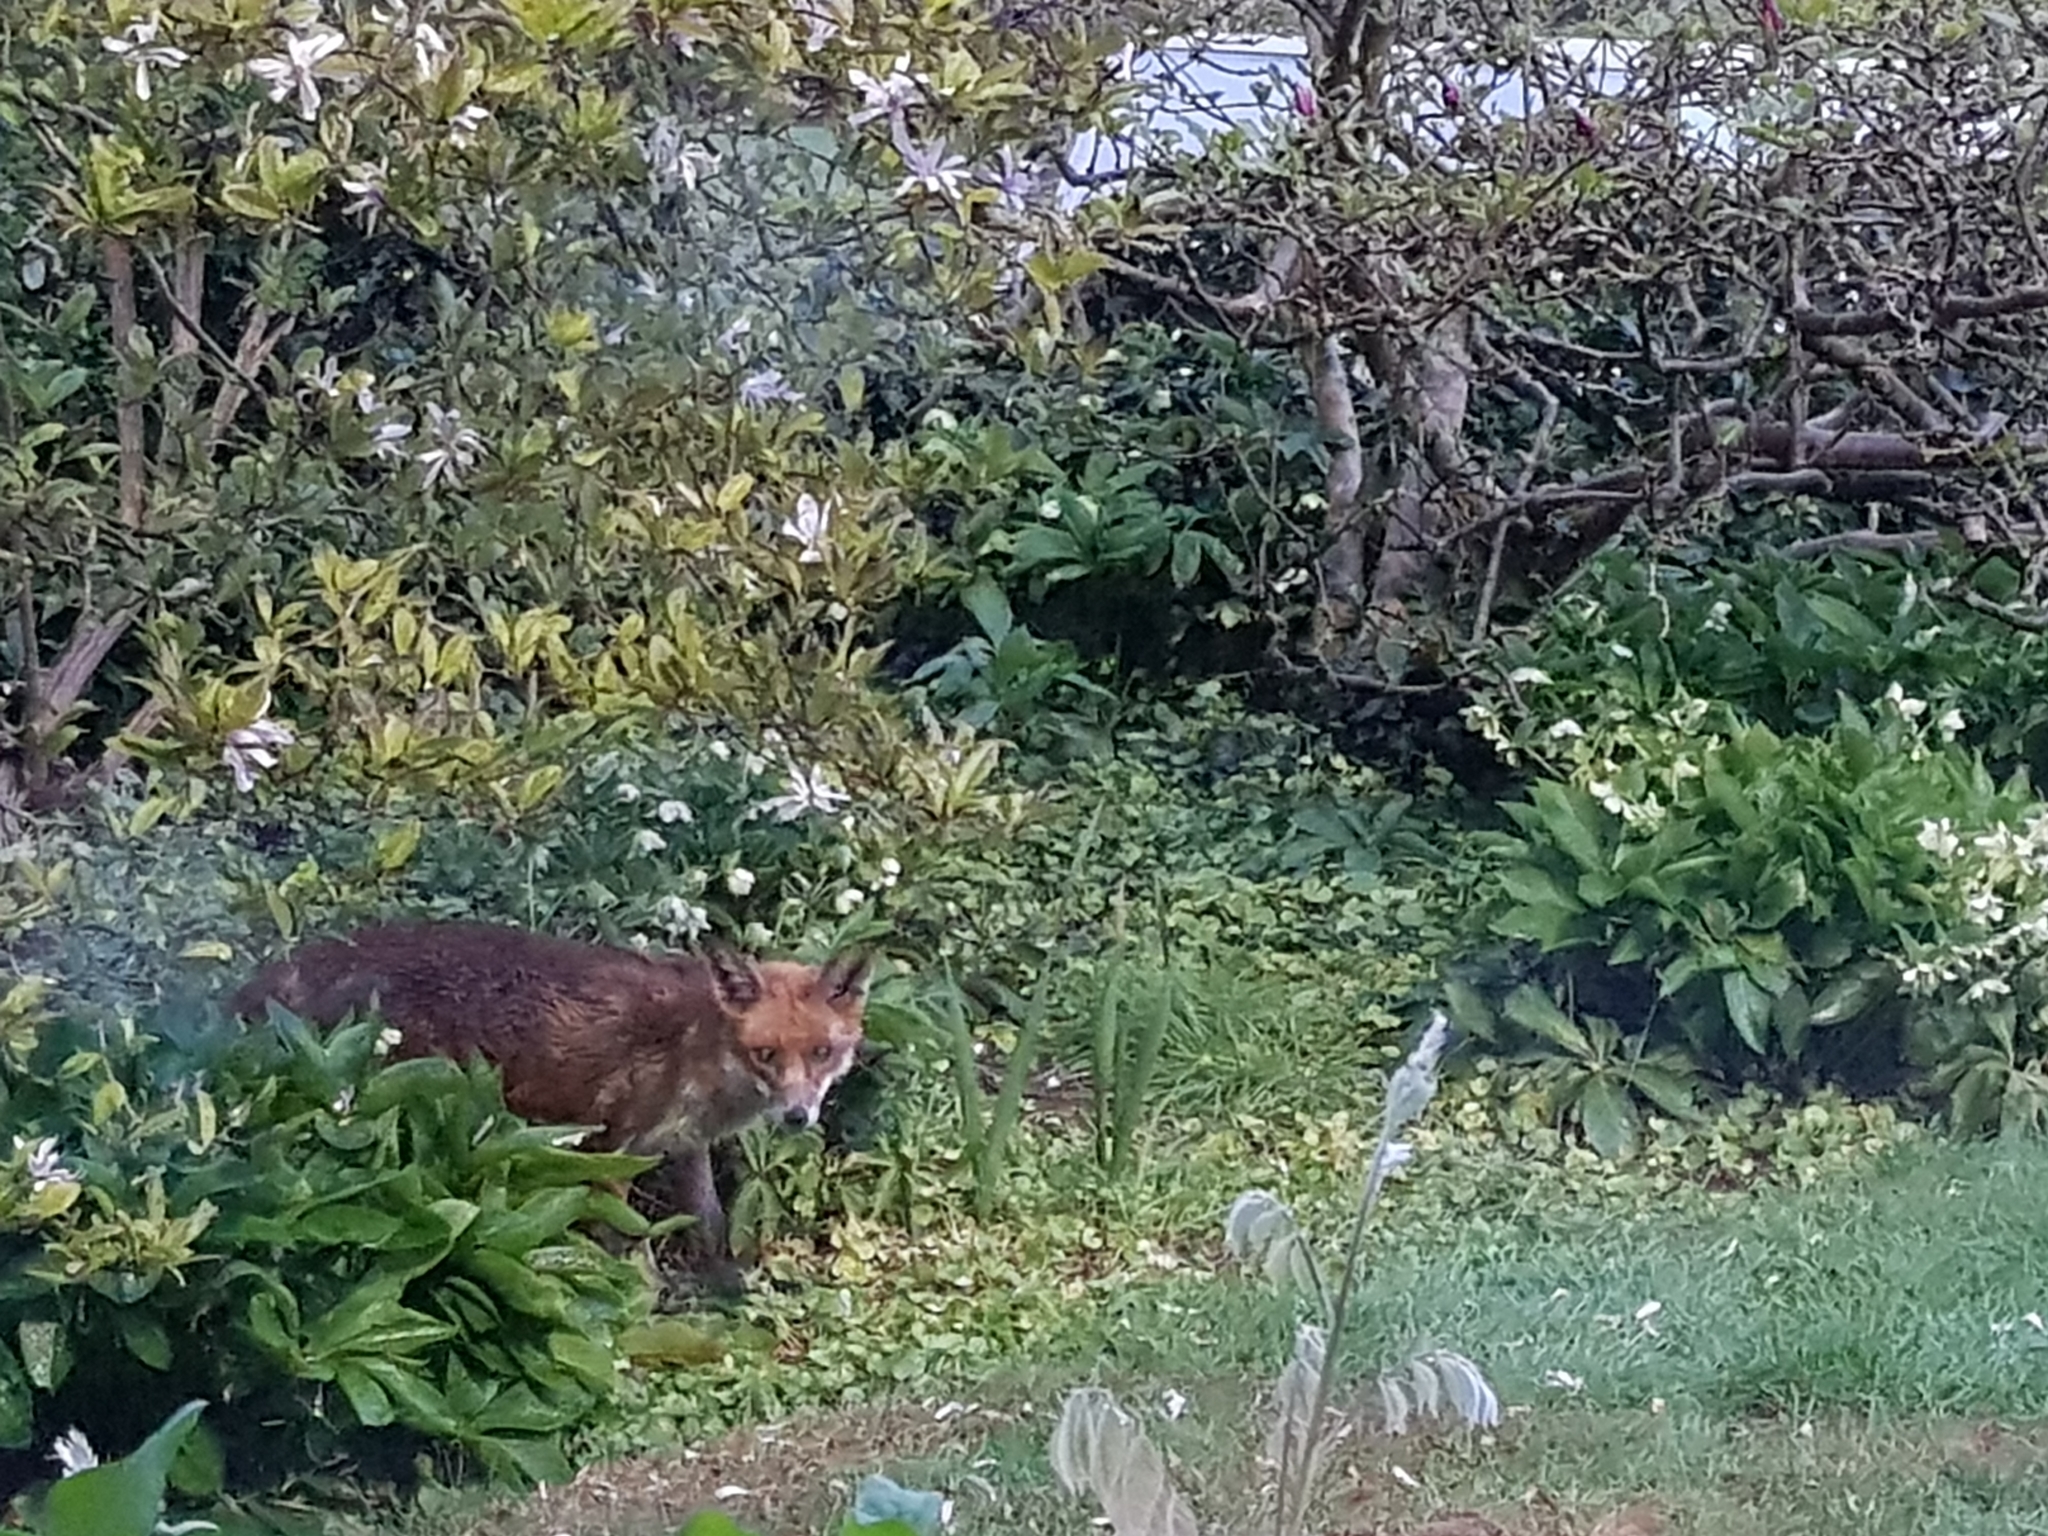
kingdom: Animalia
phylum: Chordata
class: Mammalia
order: Carnivora
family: Canidae
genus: Vulpes
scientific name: Vulpes vulpes
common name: Red fox
